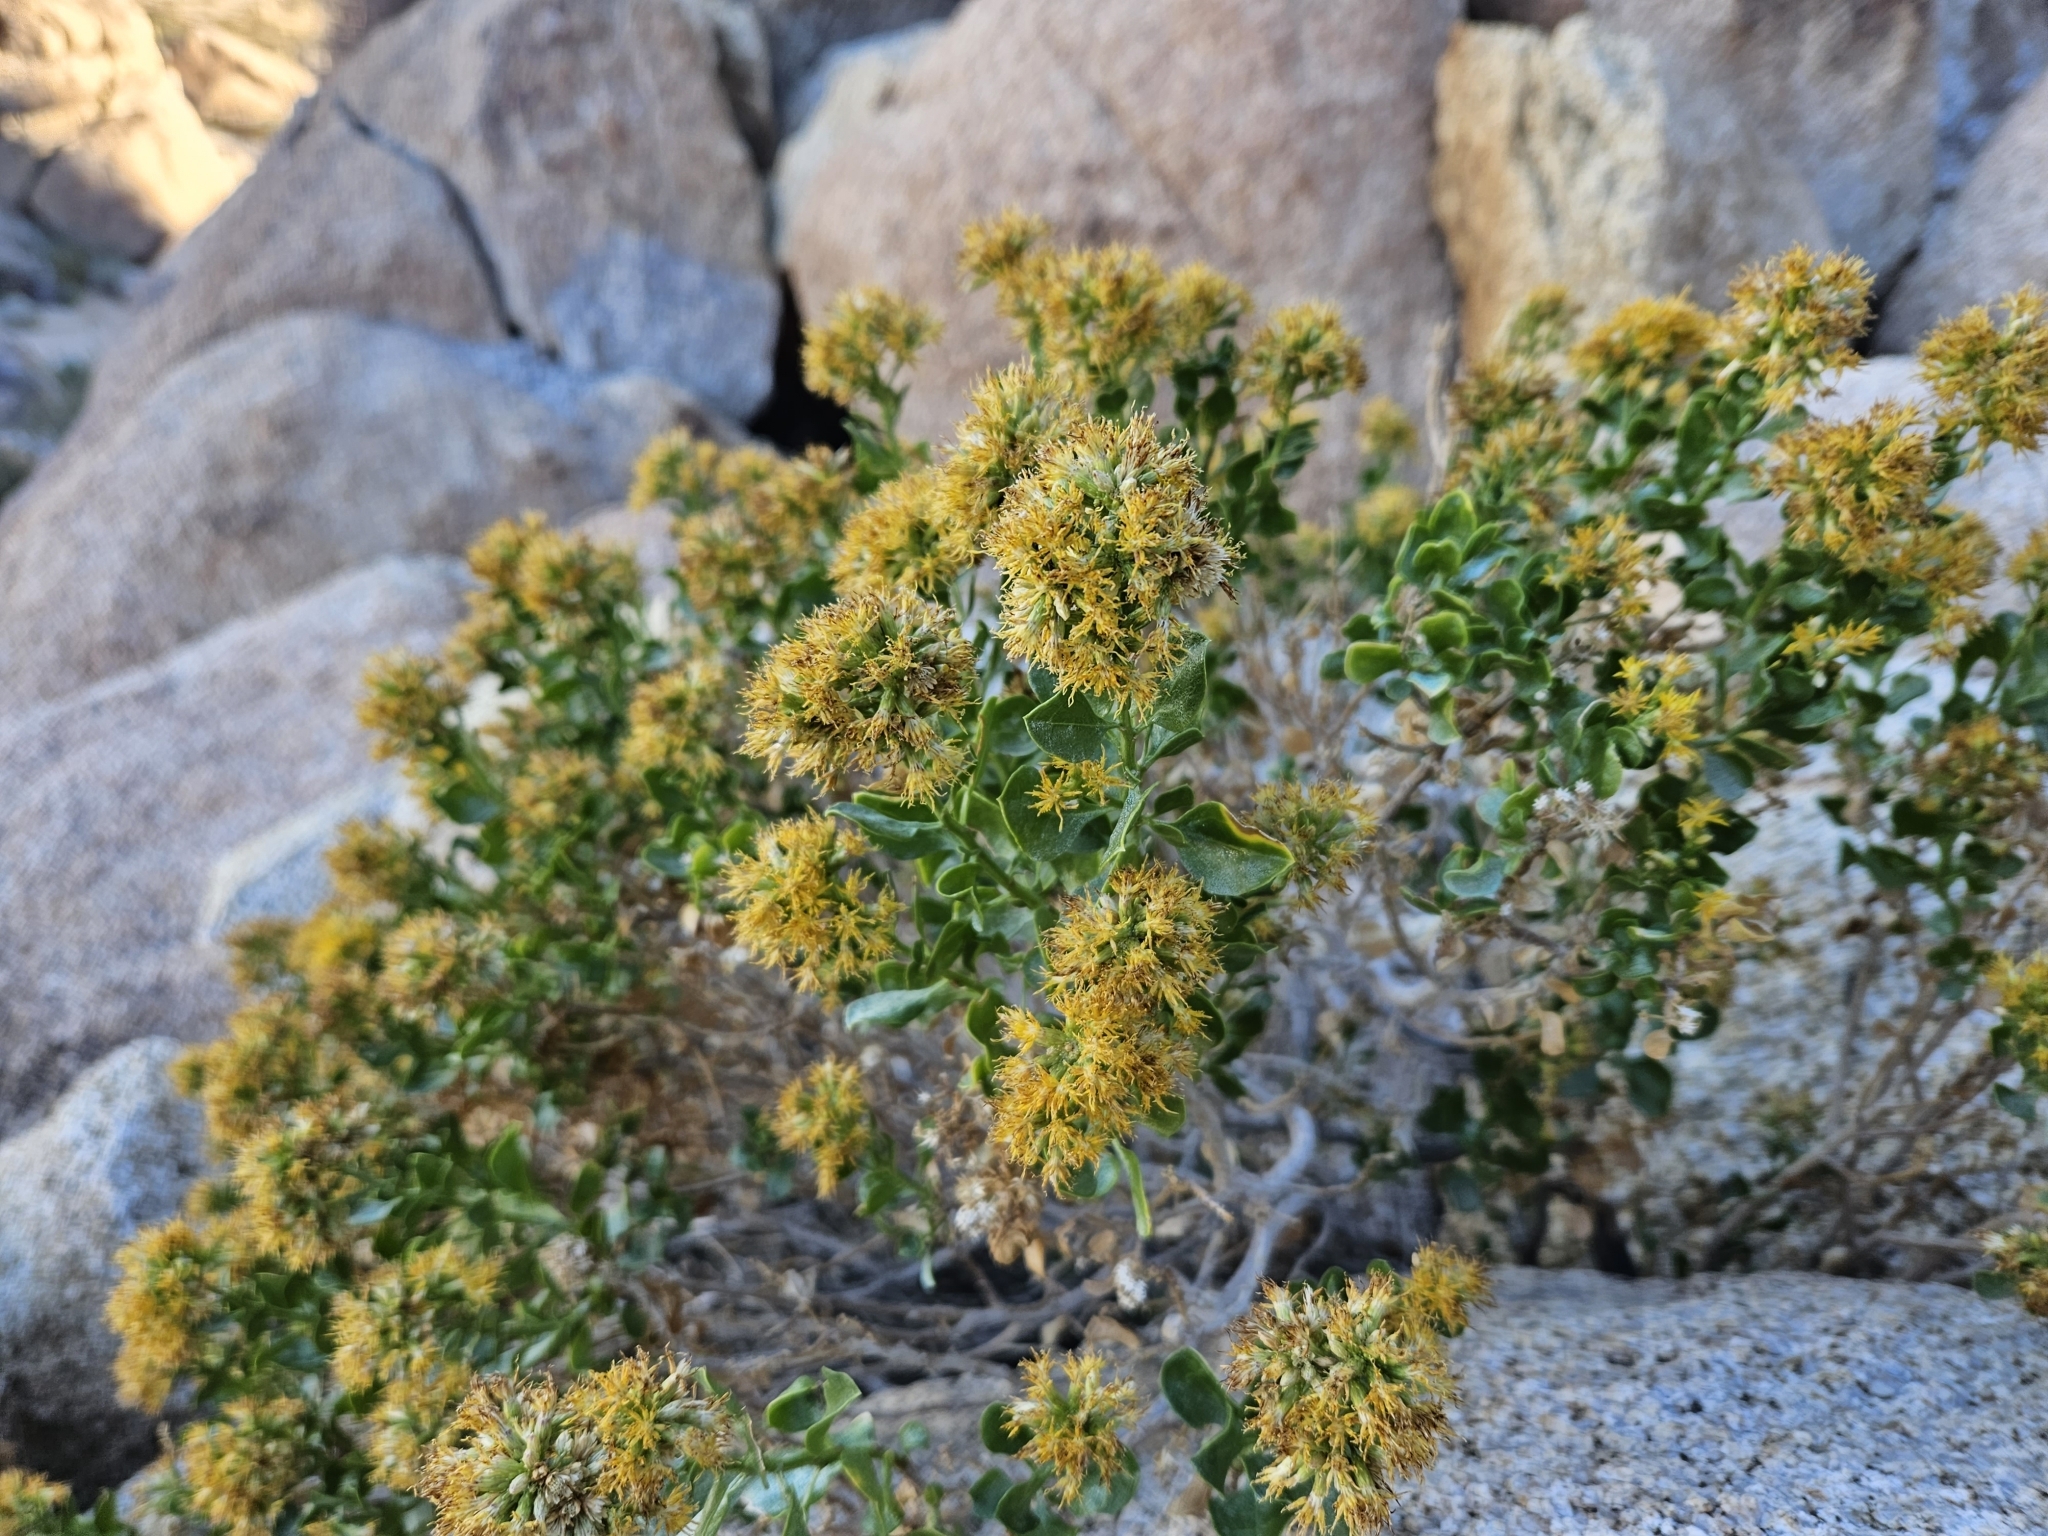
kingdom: Plantae
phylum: Tracheophyta
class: Magnoliopsida
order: Asterales
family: Asteraceae
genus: Ericameria
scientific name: Ericameria cuneata
